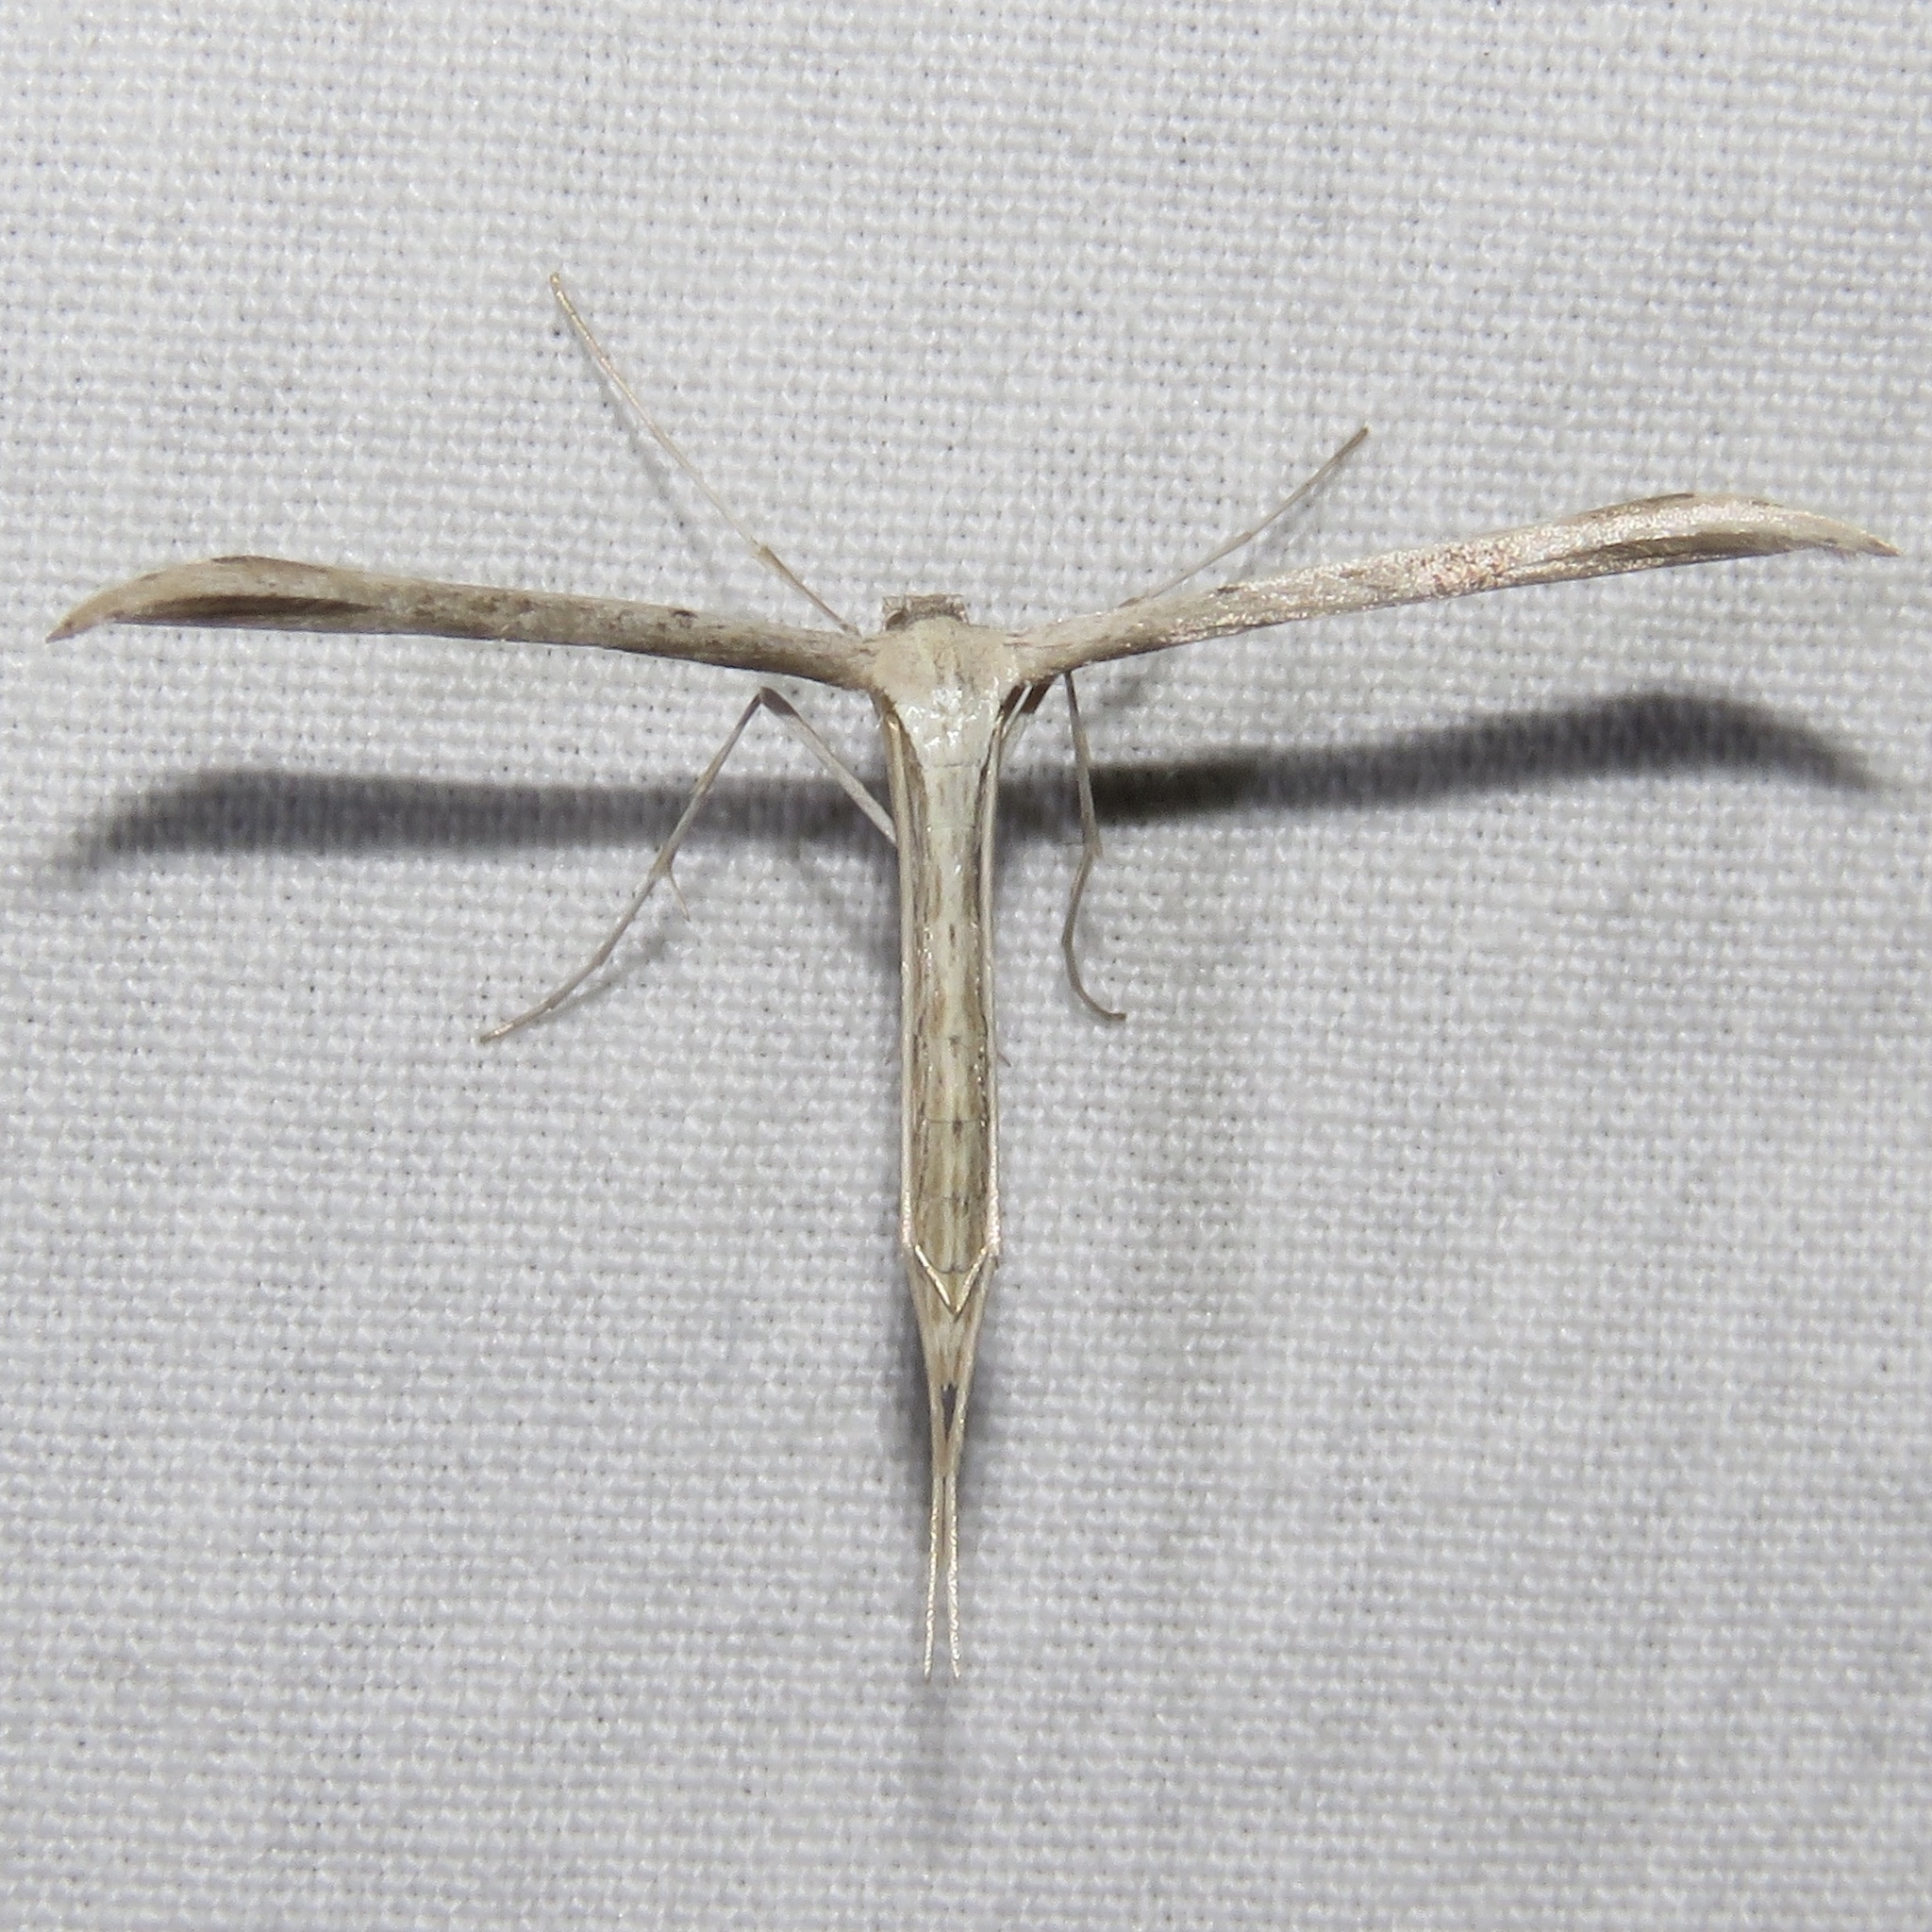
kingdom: Animalia
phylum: Arthropoda
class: Insecta
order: Lepidoptera
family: Pterophoridae
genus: Emmelina
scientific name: Emmelina monodactyla
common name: Common plume
